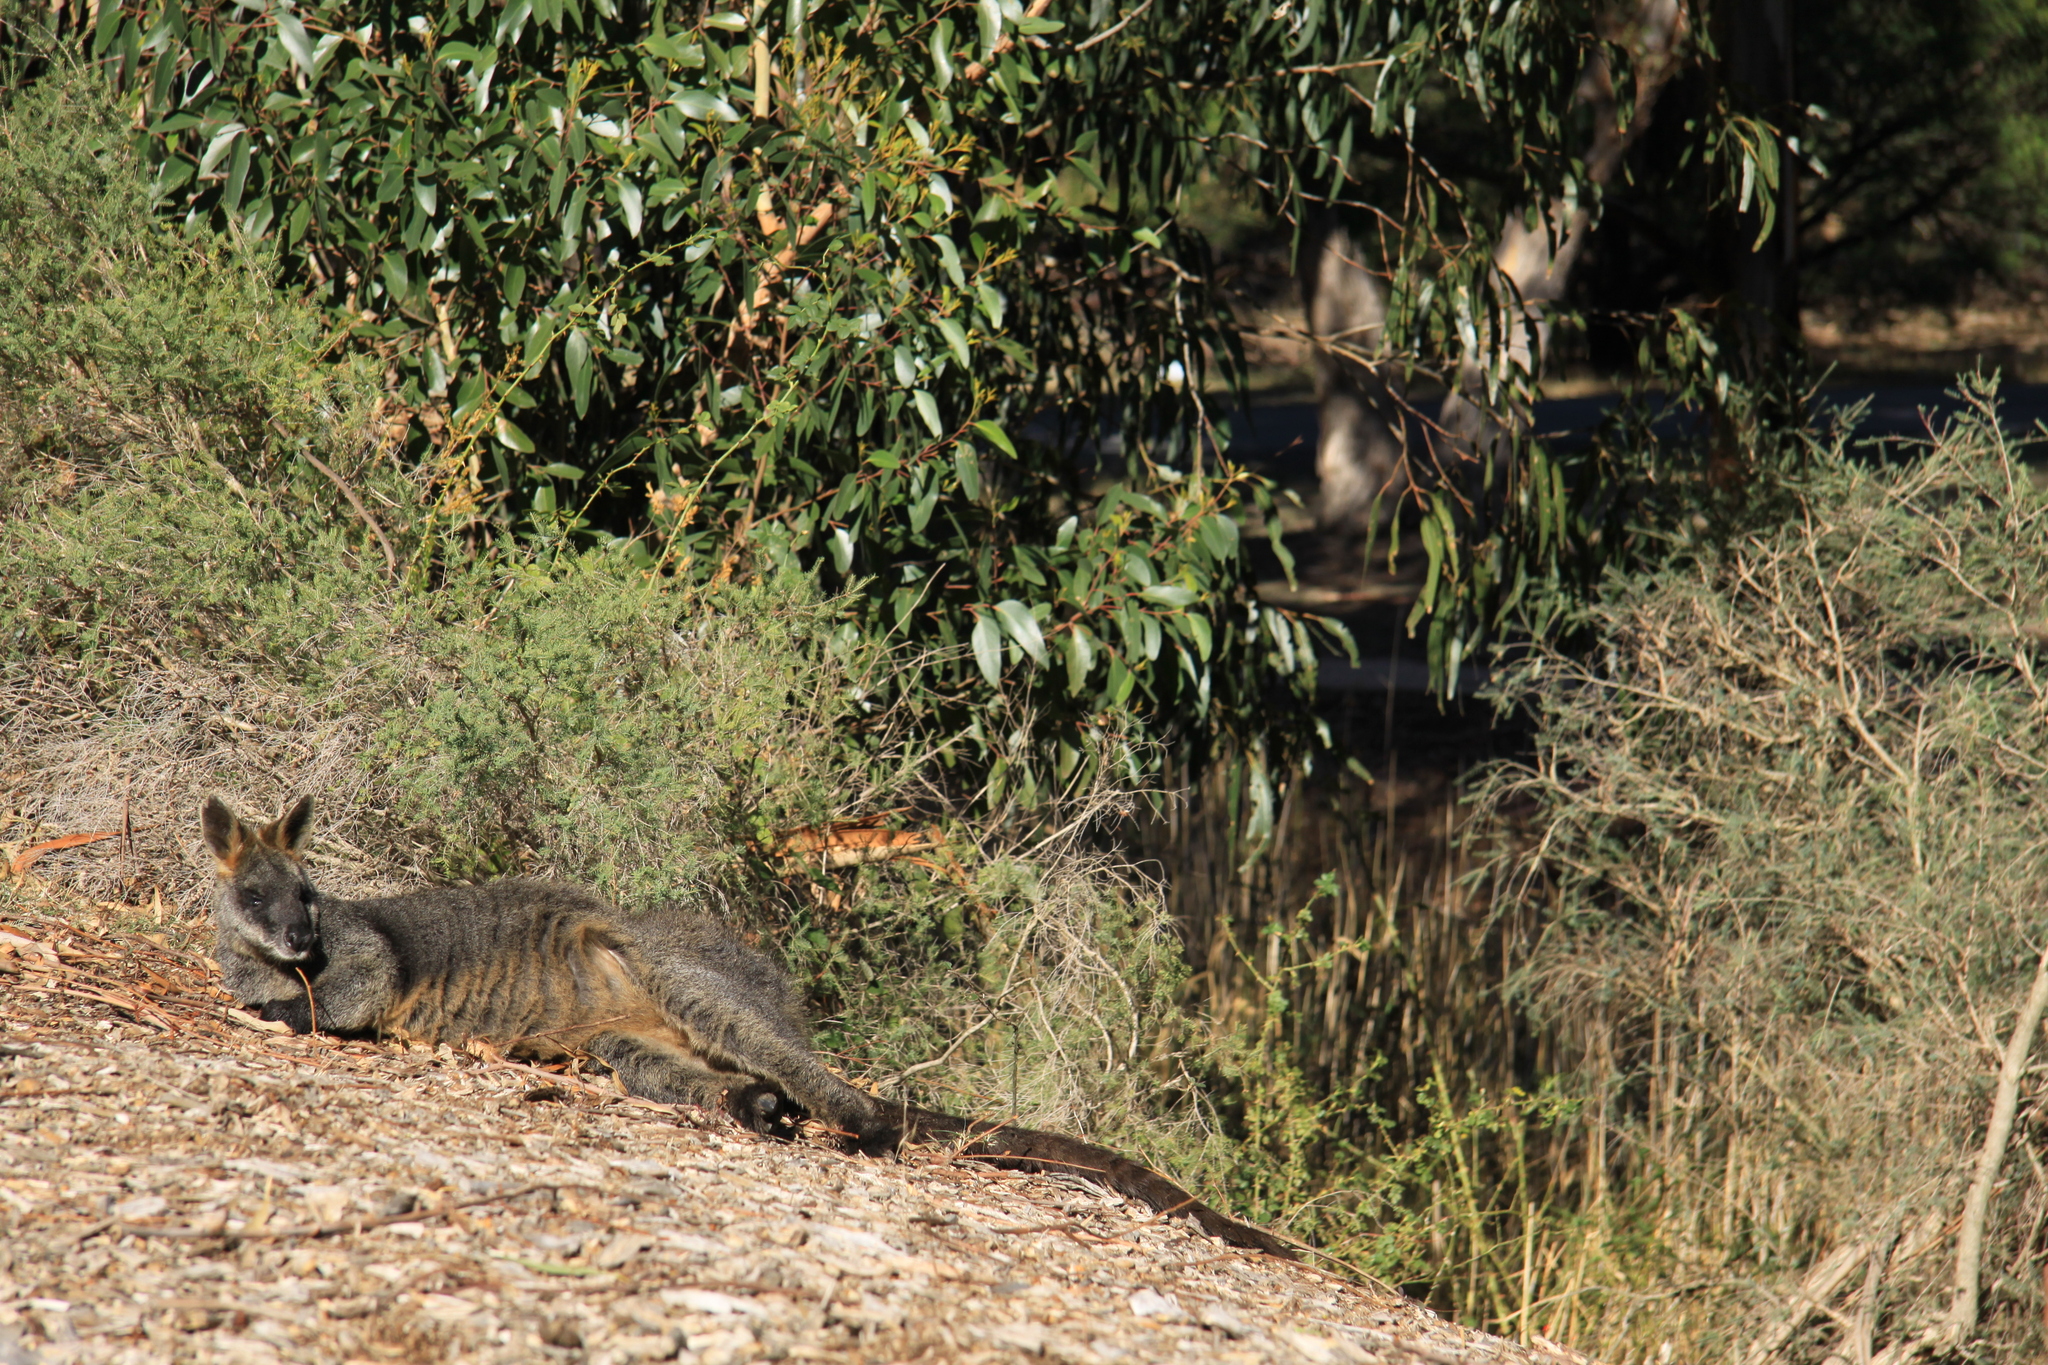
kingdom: Animalia
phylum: Chordata
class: Mammalia
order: Diprotodontia
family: Macropodidae
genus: Wallabia
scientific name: Wallabia bicolor
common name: Swamp wallaby
